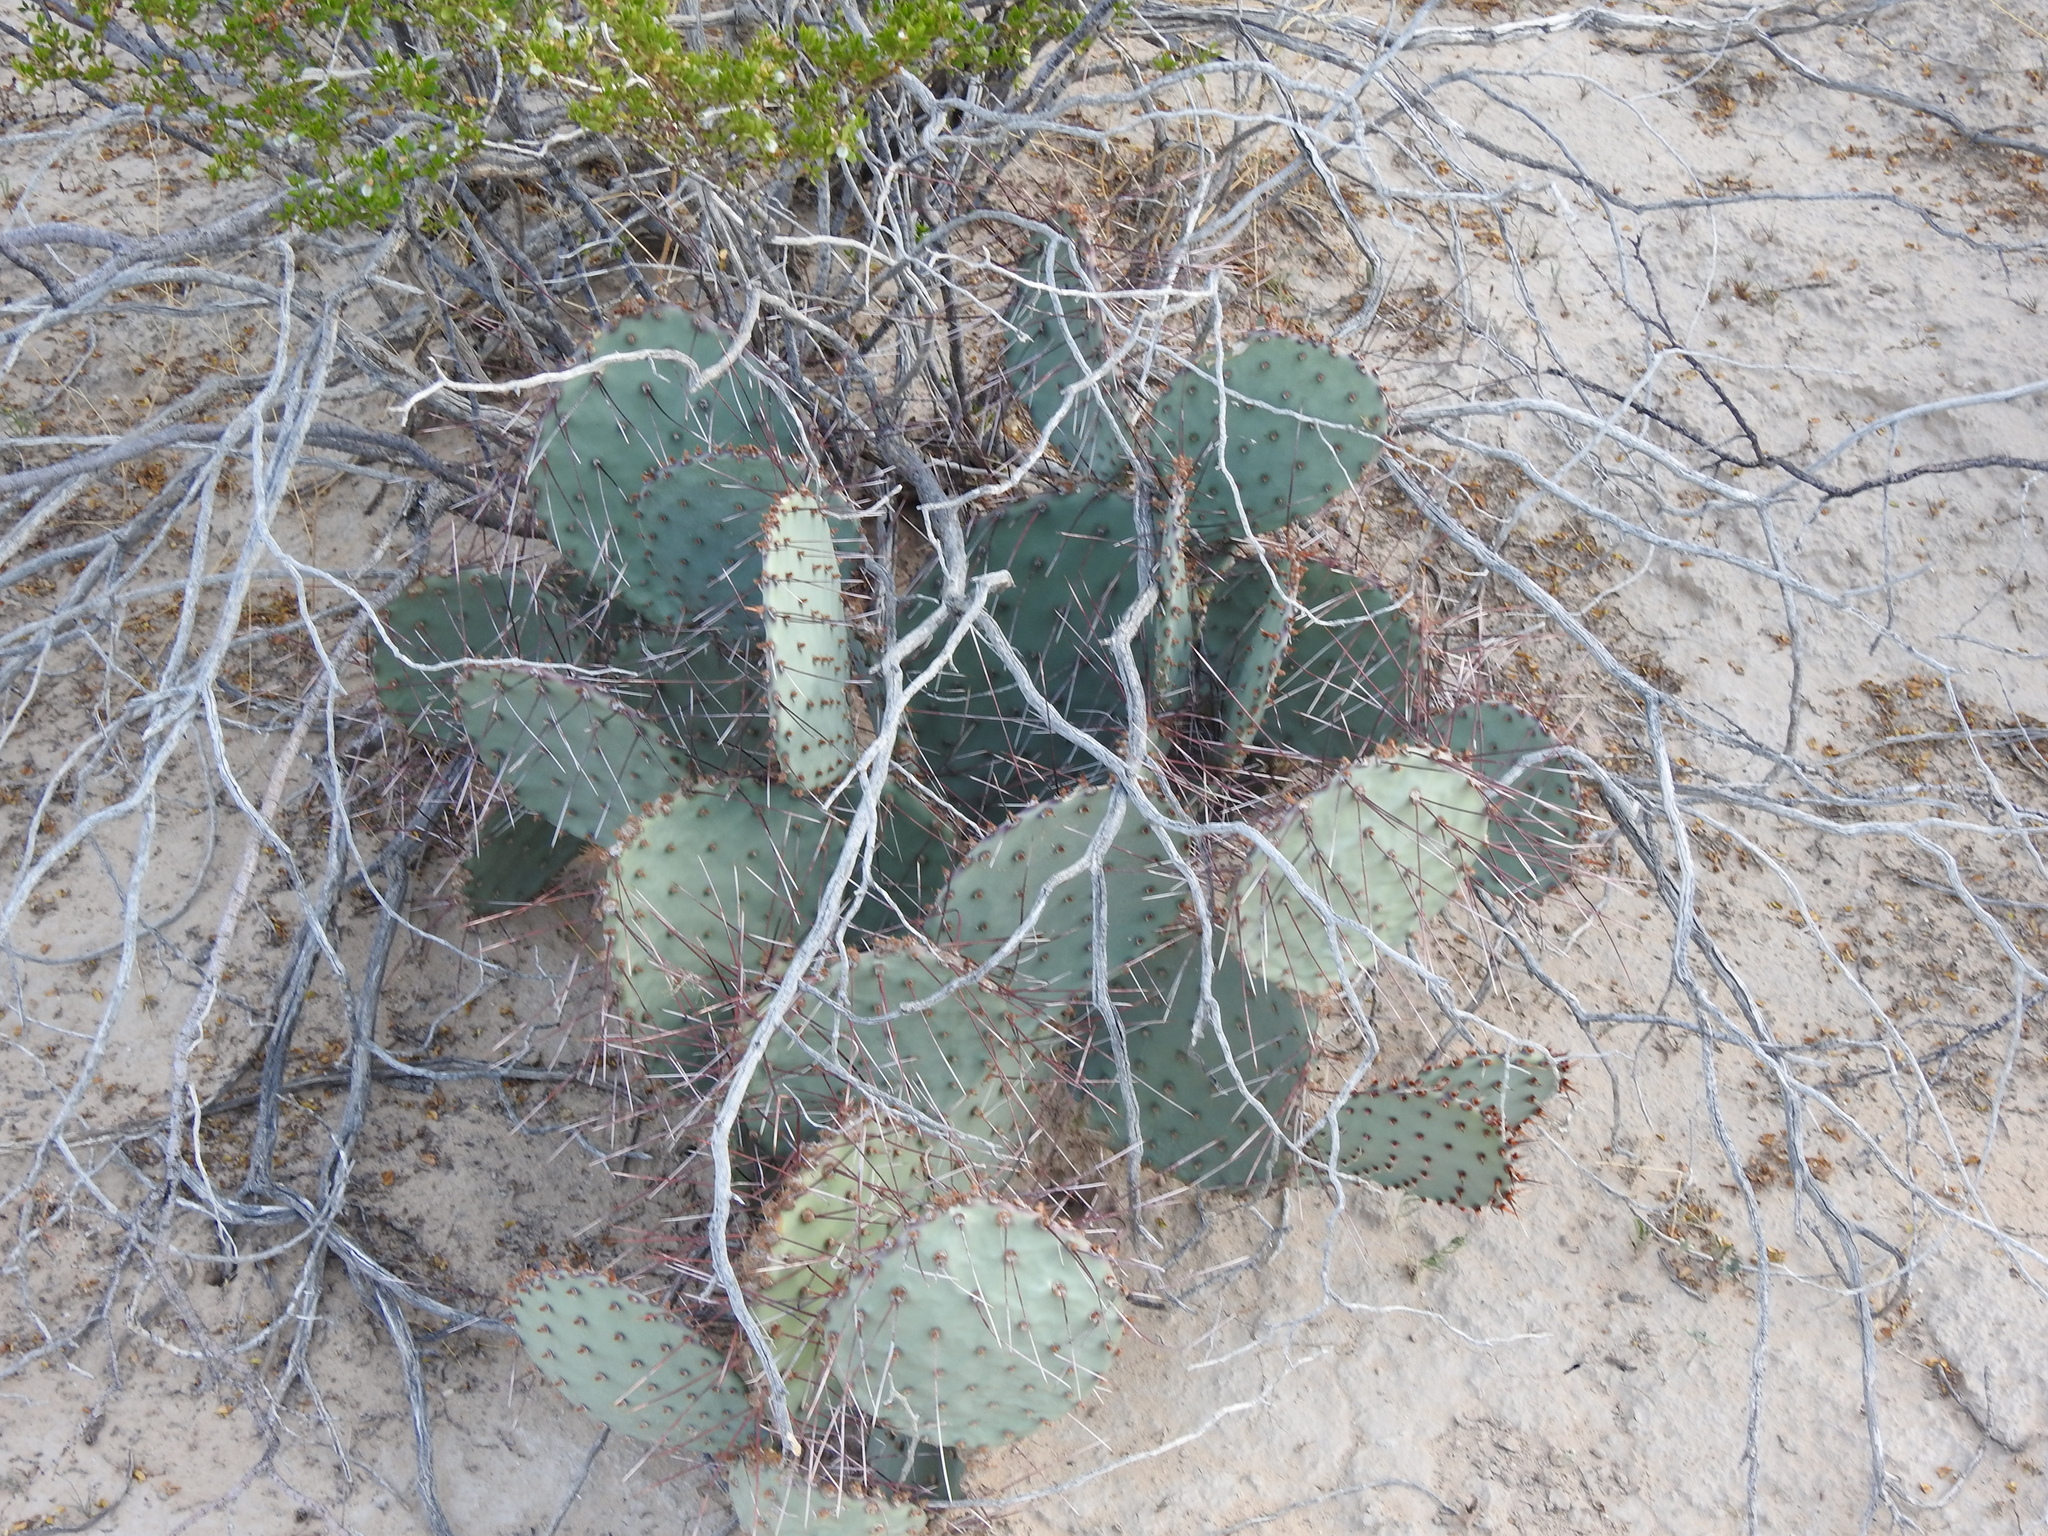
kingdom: Plantae
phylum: Tracheophyta
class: Magnoliopsida
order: Caryophyllales
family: Cactaceae
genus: Opuntia
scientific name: Opuntia macrocentra
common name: Purple prickly-pear
